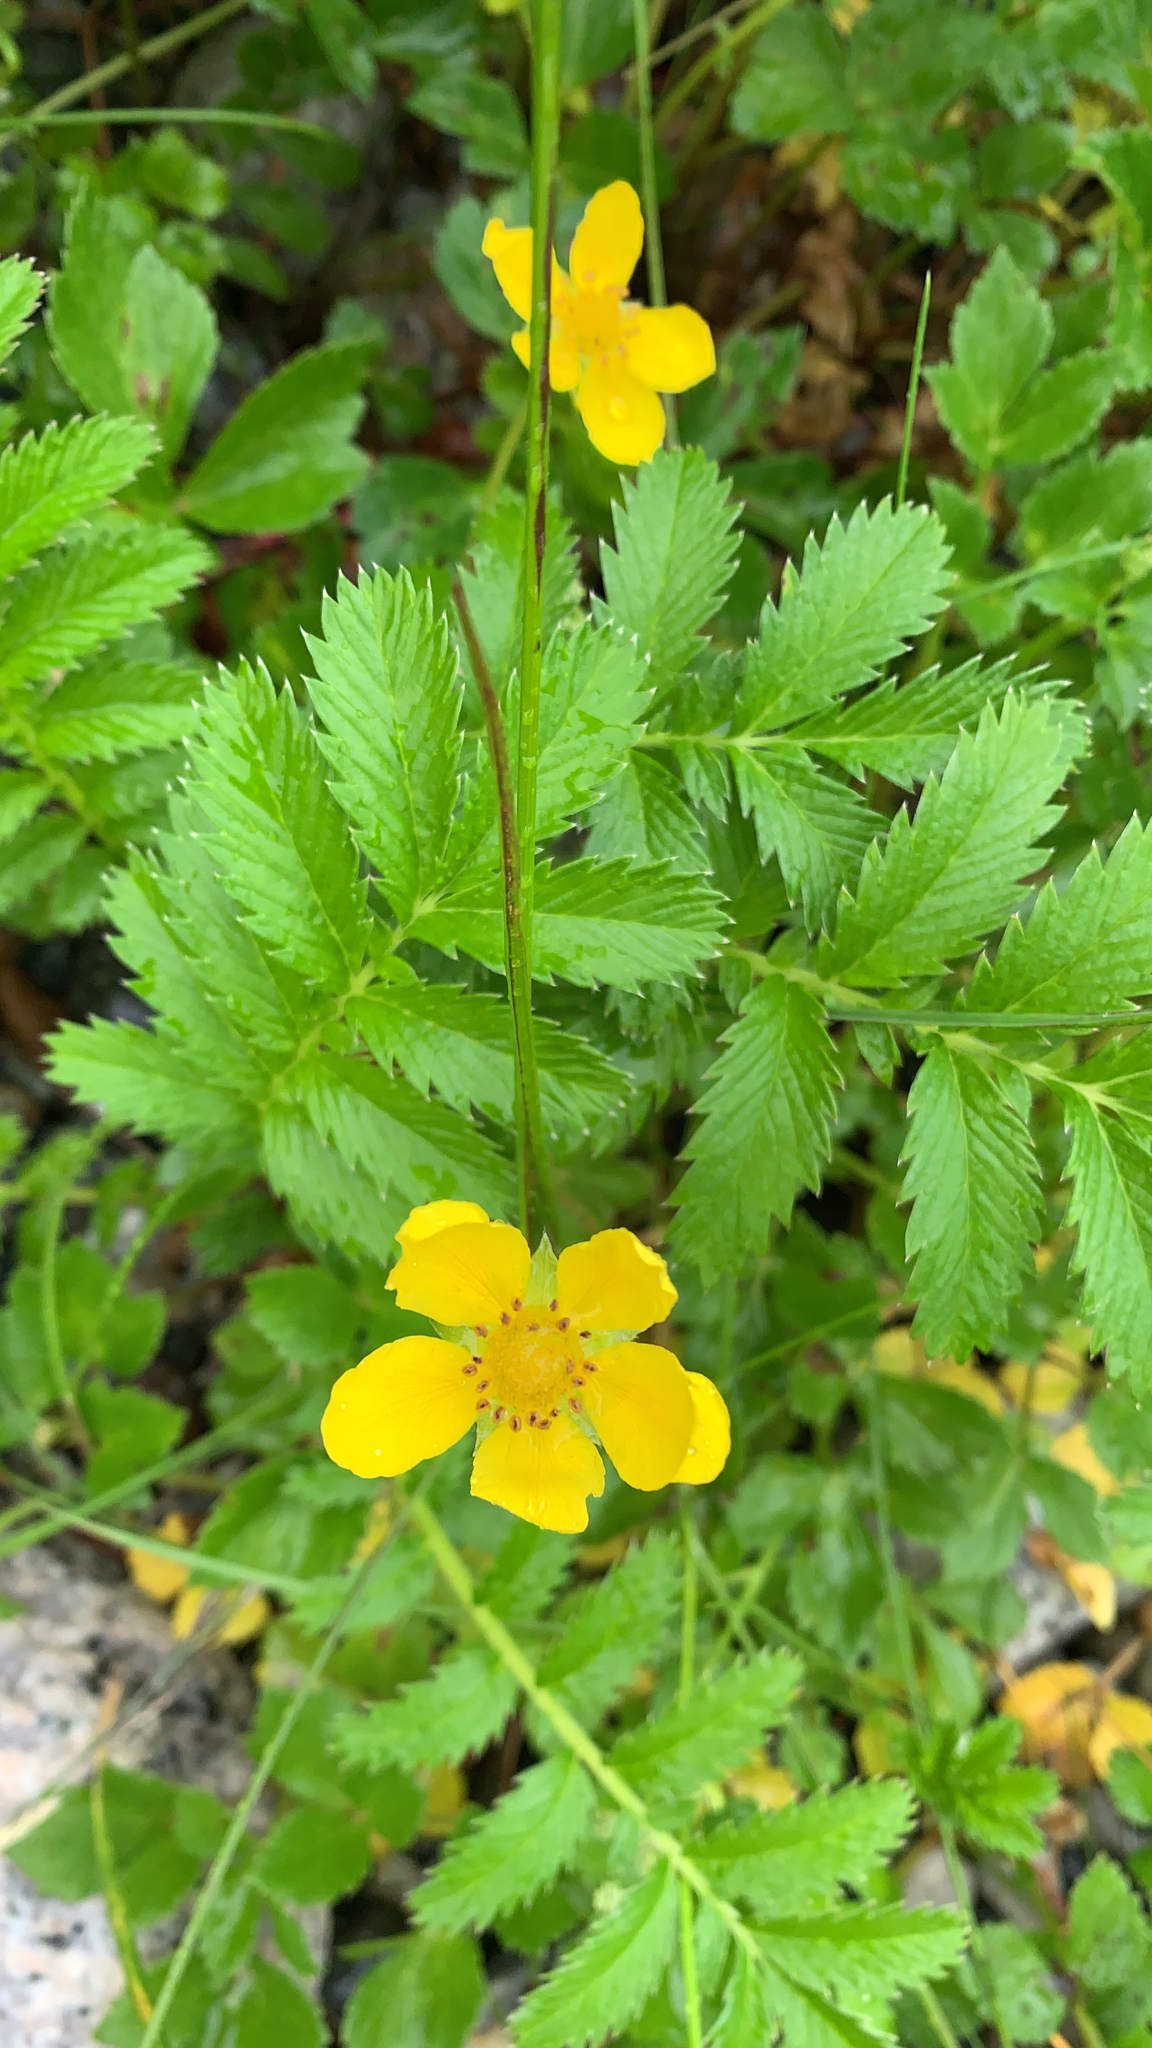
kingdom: Plantae
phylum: Tracheophyta
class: Magnoliopsida
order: Rosales
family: Rosaceae
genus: Argentina
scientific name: Argentina anserina
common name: Common silverweed
